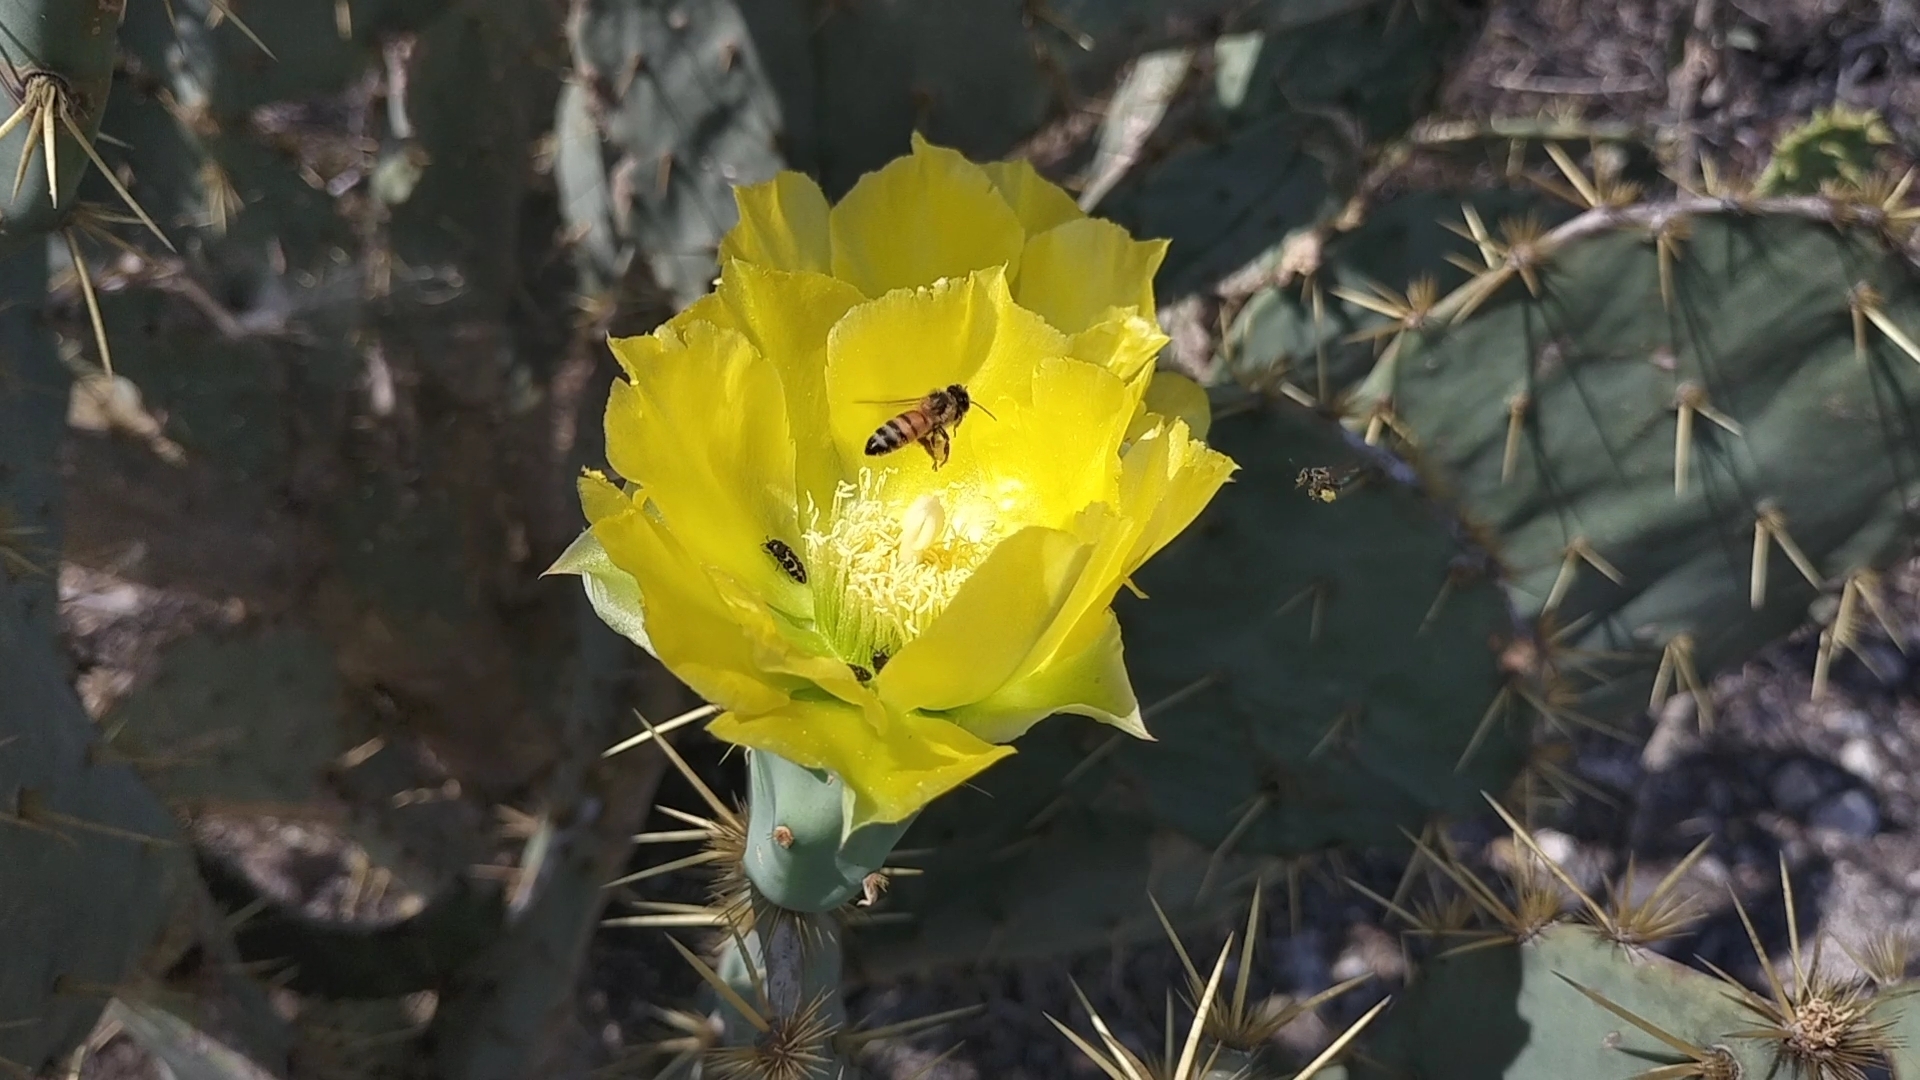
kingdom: Animalia
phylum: Arthropoda
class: Insecta
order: Hymenoptera
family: Apidae
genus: Apis
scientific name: Apis mellifera
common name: Honey bee
